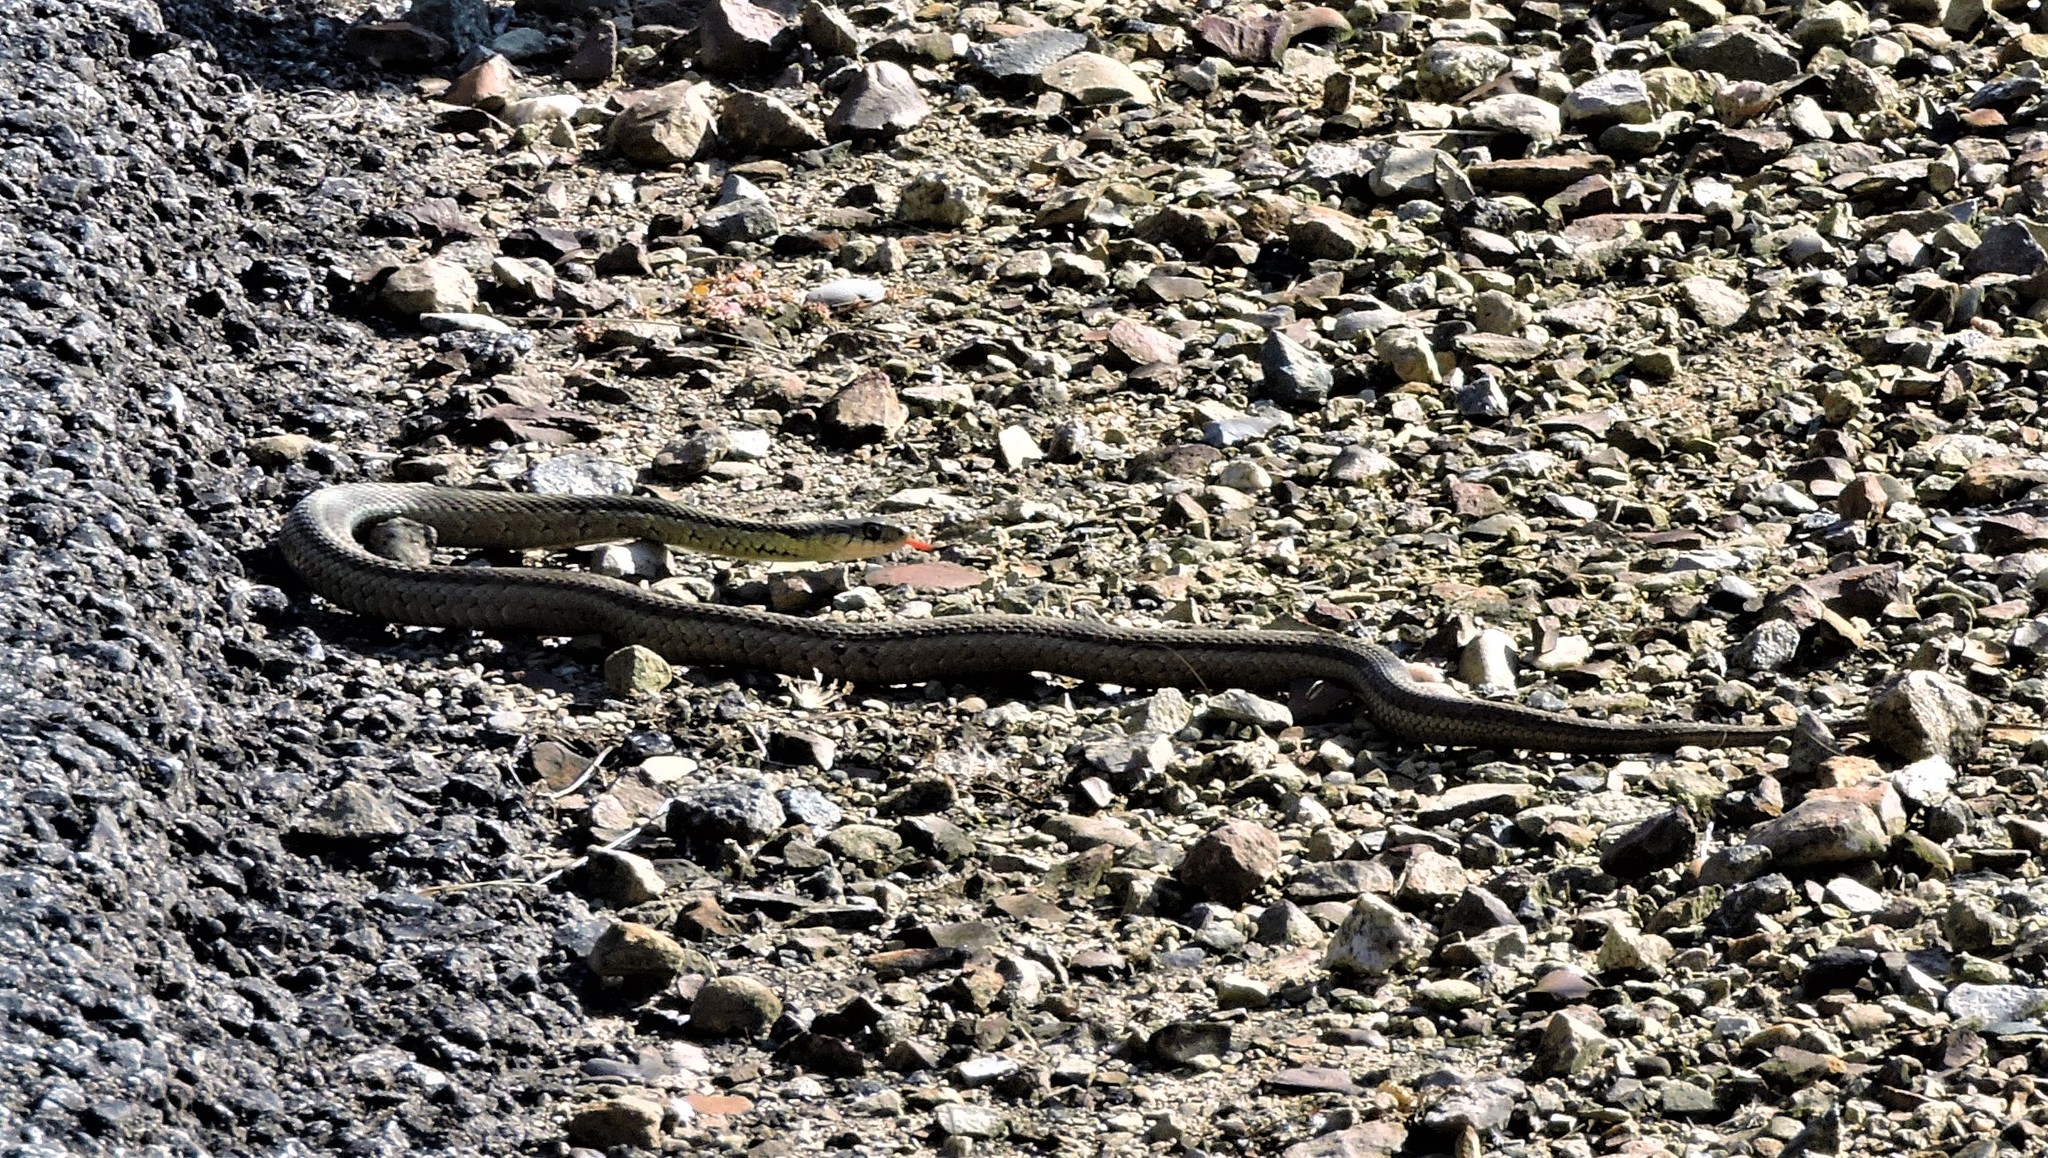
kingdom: Animalia
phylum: Chordata
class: Squamata
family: Colubridae
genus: Thamnophis
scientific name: Thamnophis sirtalis
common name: Common garter snake
